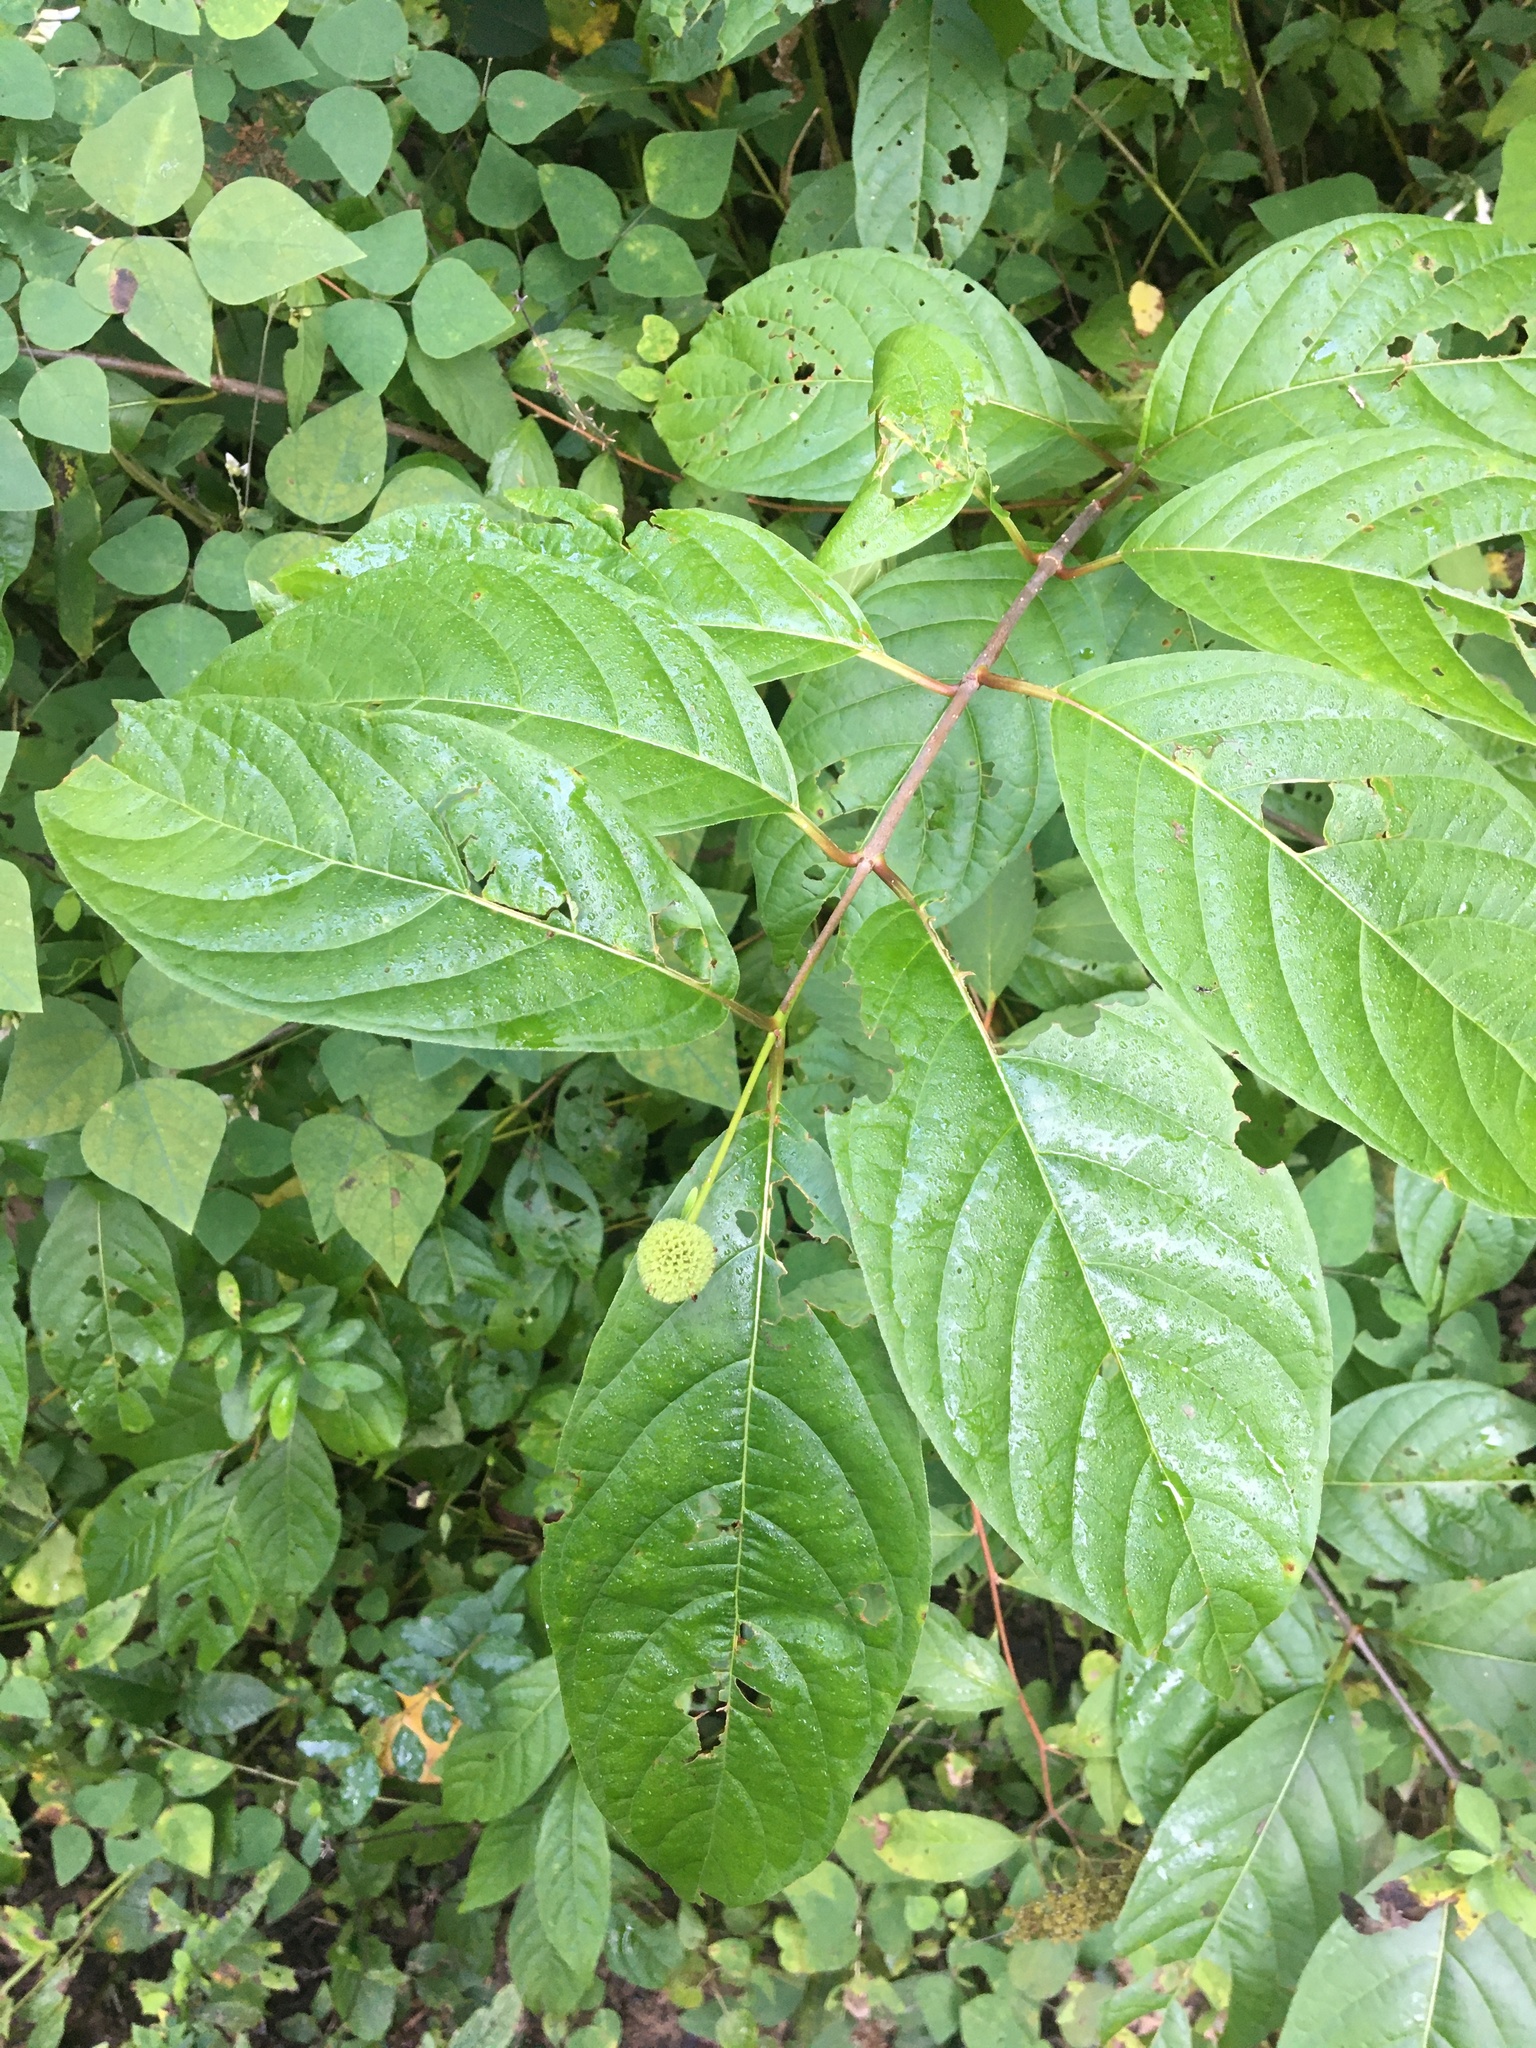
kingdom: Plantae
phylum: Tracheophyta
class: Magnoliopsida
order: Gentianales
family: Rubiaceae
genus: Cephalanthus
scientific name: Cephalanthus occidentalis
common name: Button-willow
